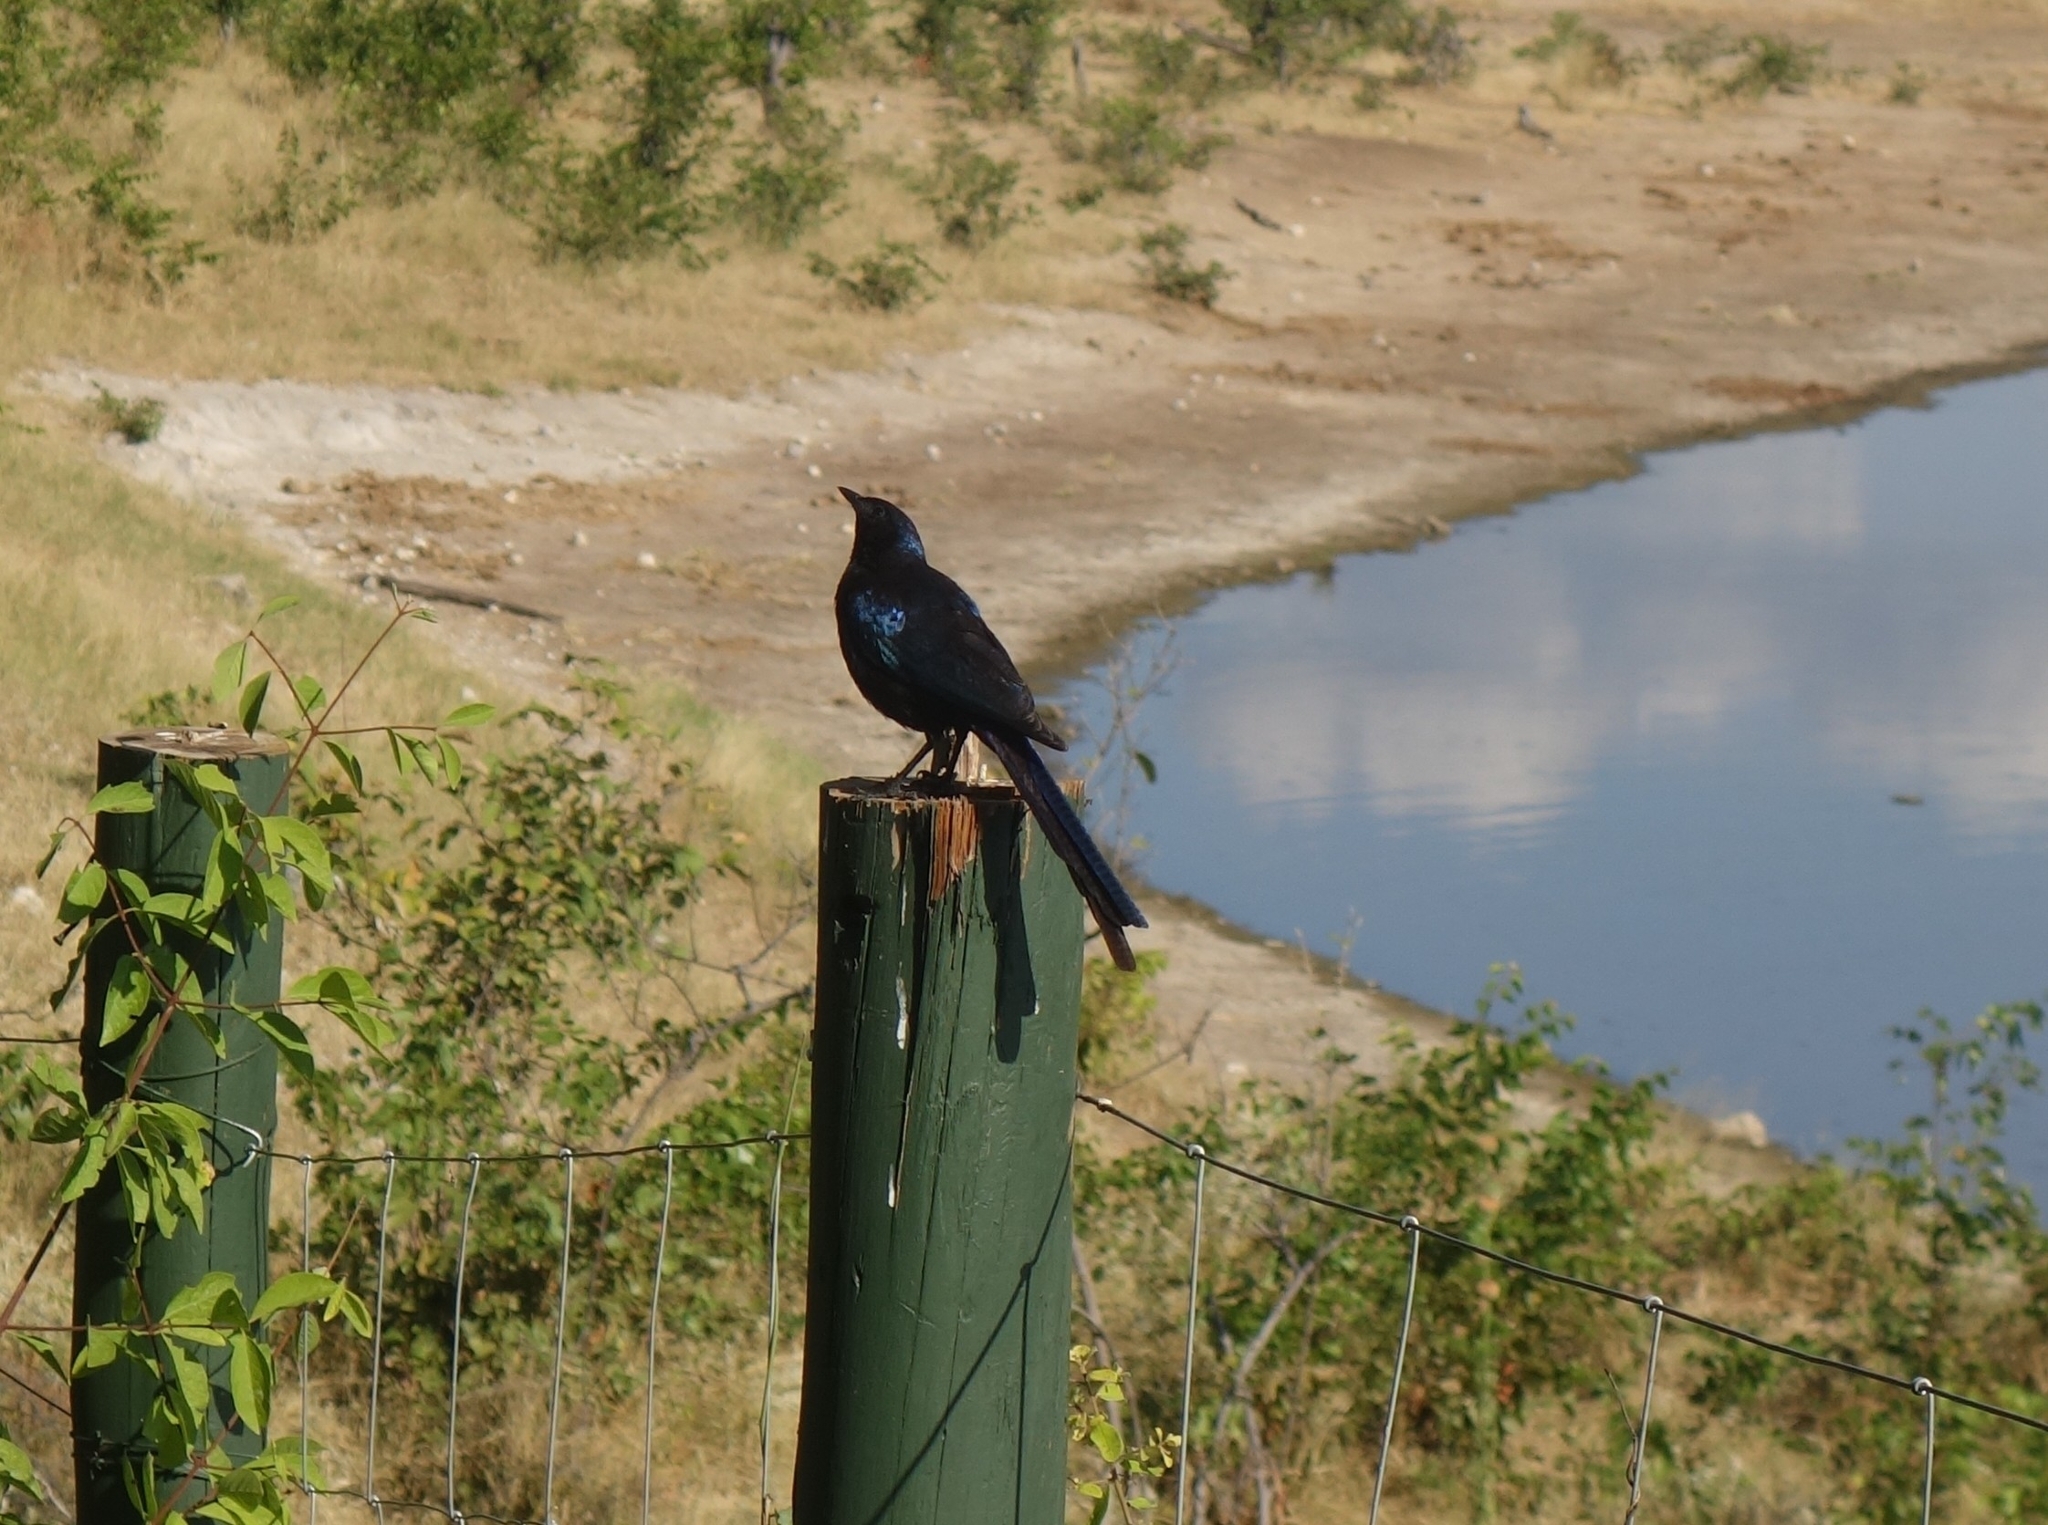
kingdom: Animalia
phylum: Chordata
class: Aves
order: Passeriformes
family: Sturnidae
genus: Lamprotornis
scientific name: Lamprotornis mevesii
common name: Meves's starling
